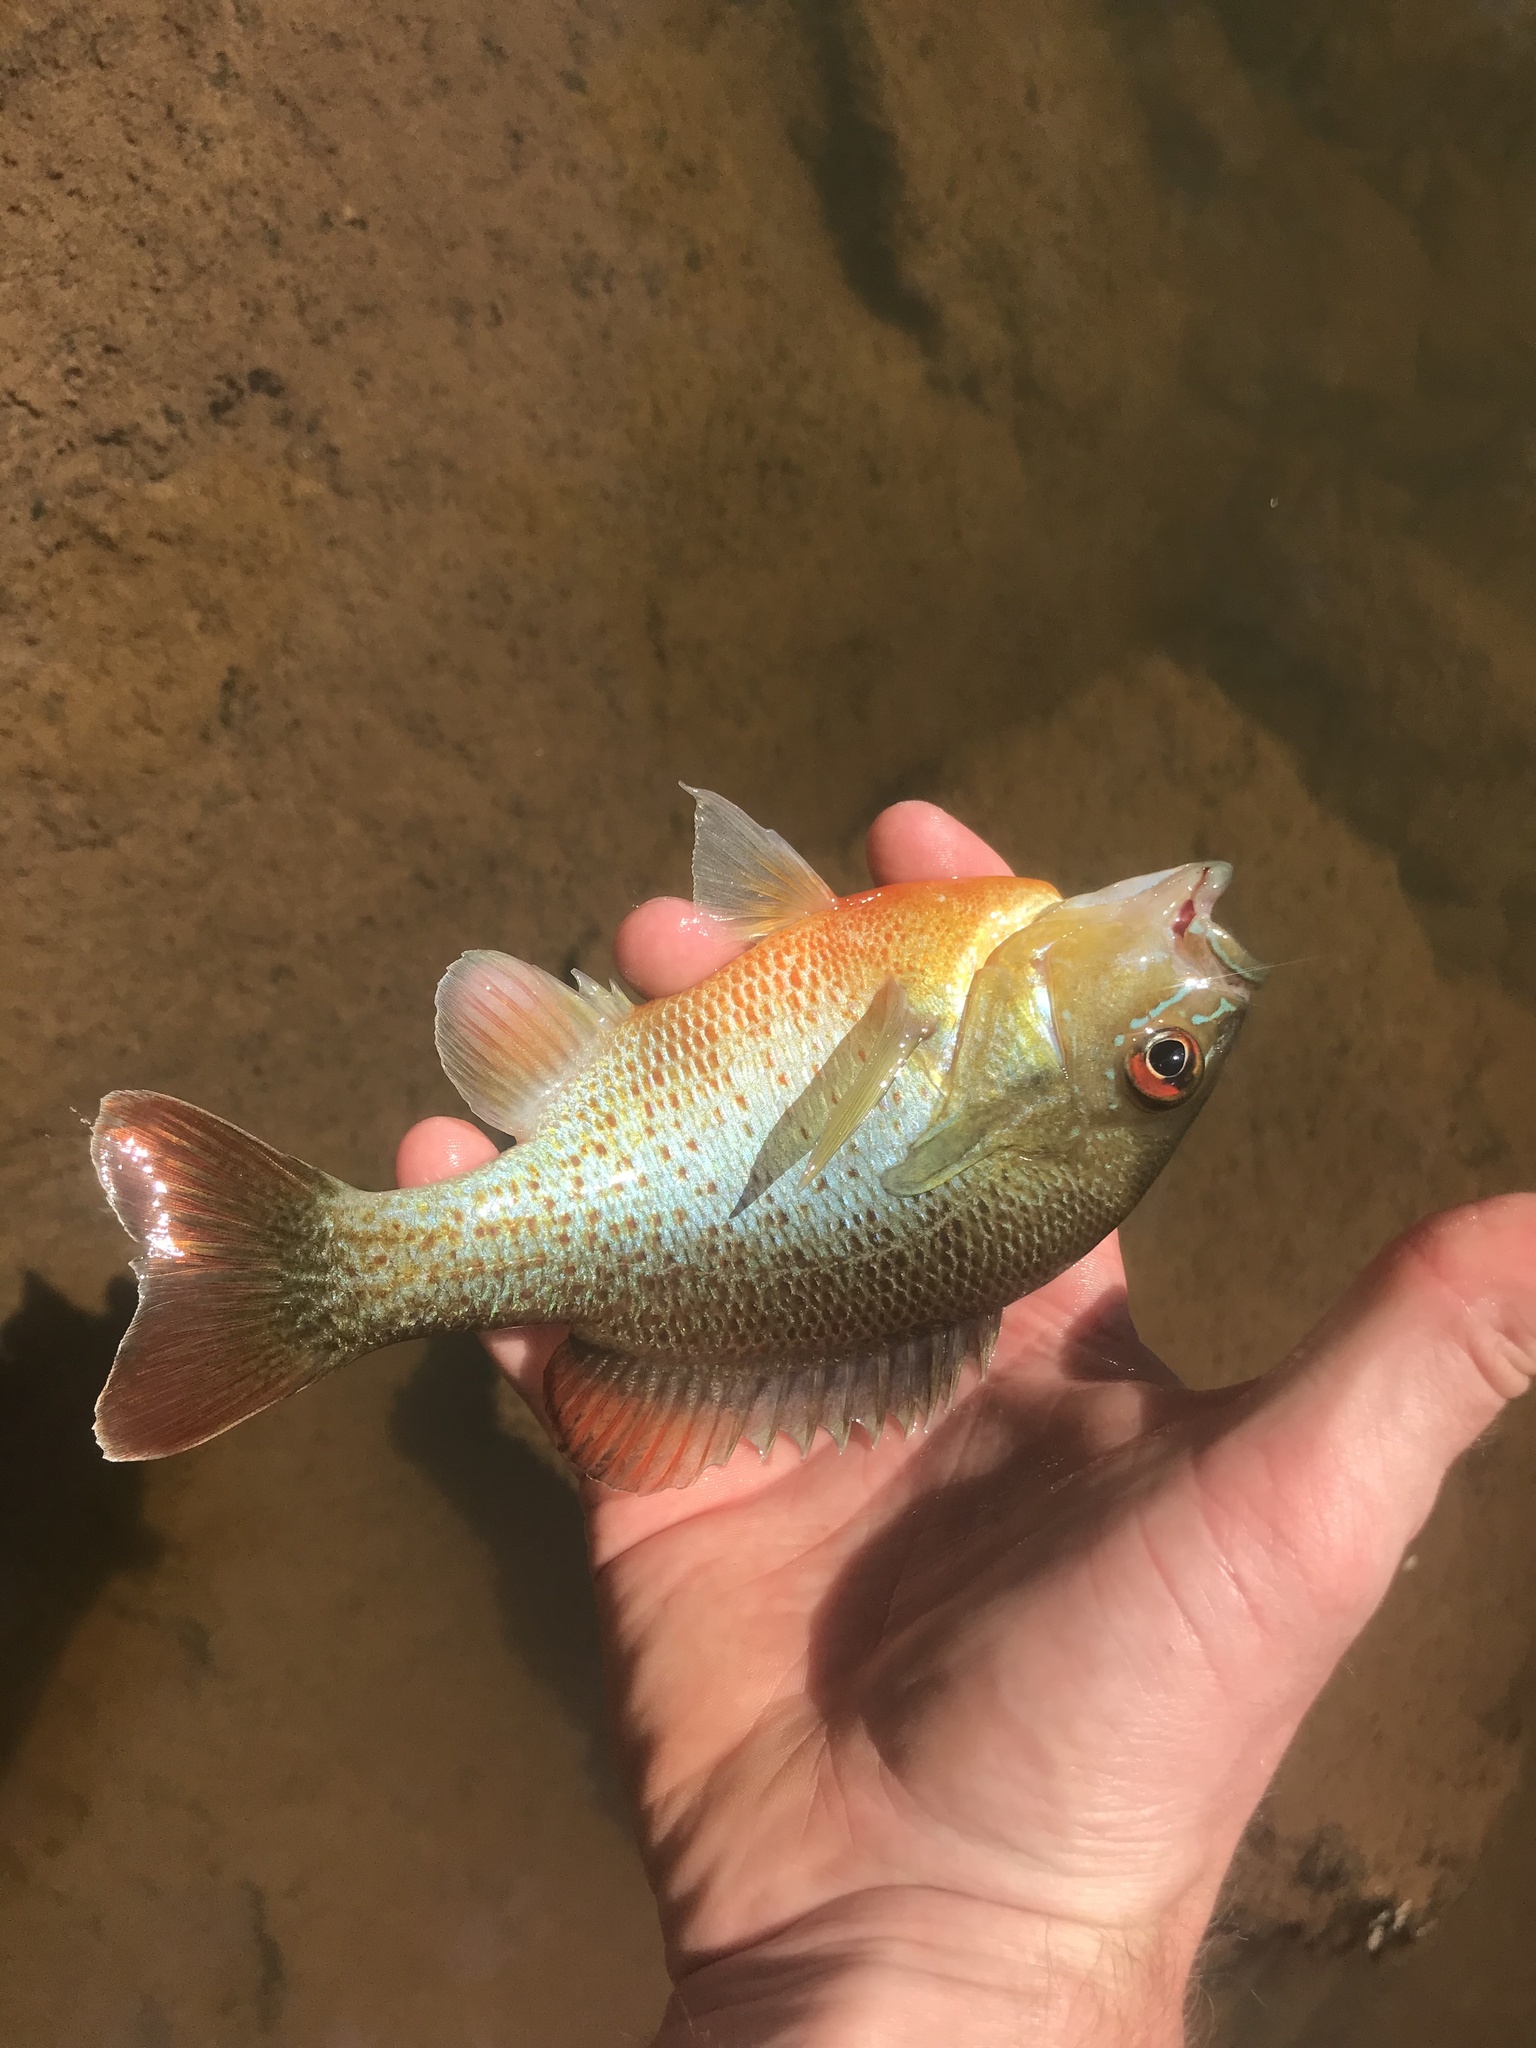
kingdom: Animalia
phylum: Chordata
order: Perciformes
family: Centrarchidae
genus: Lepomis
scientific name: Lepomis auritus
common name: Redbreast sunfish
